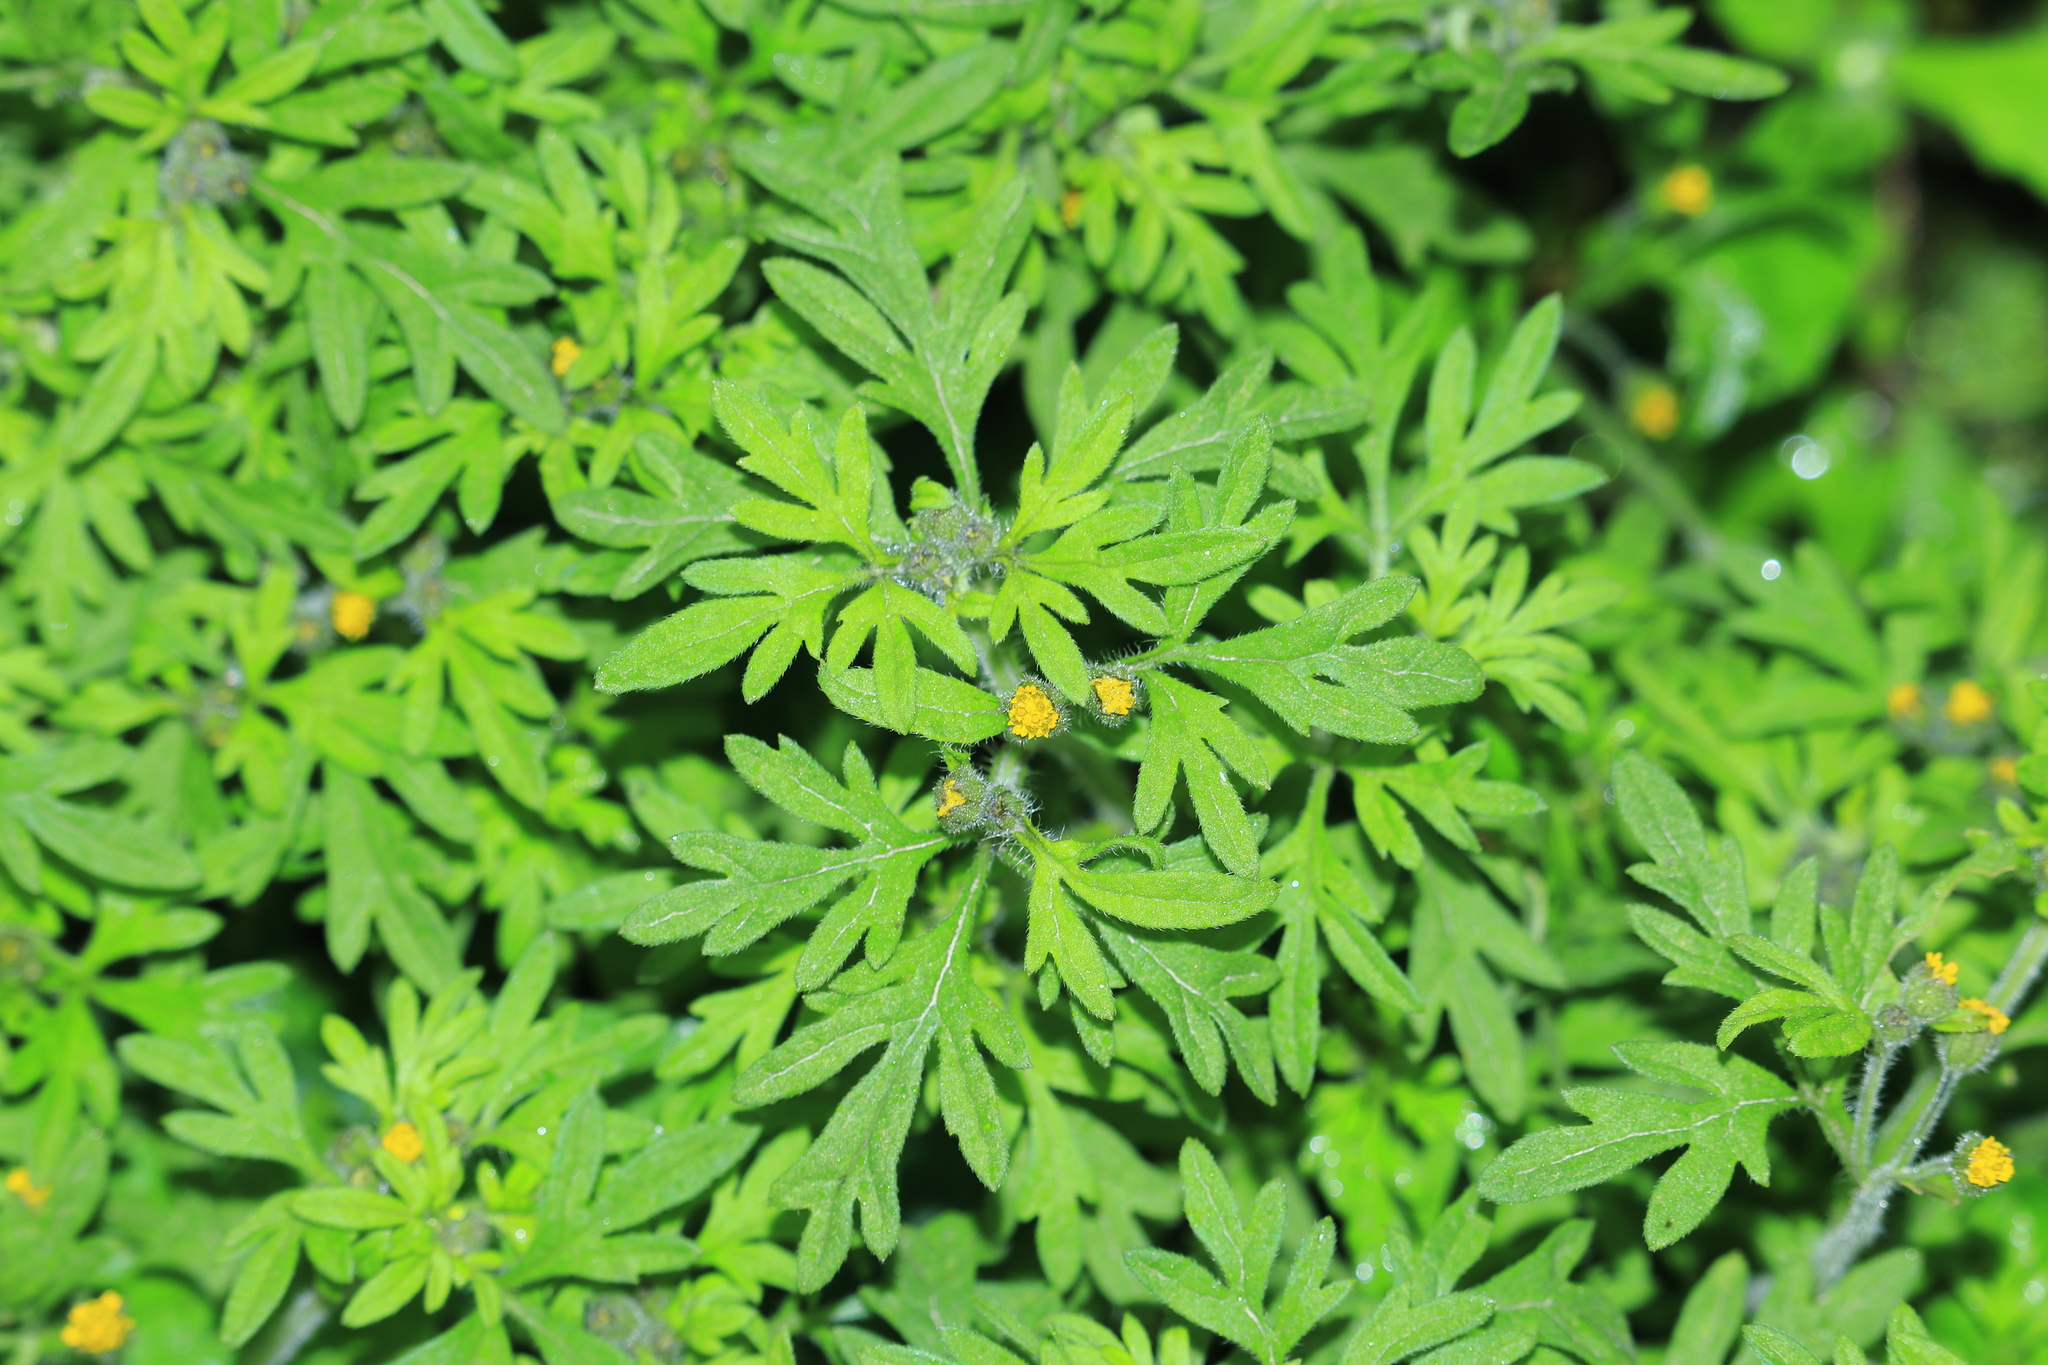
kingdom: Plantae
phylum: Tracheophyta
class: Magnoliopsida
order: Asterales
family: Asteraceae
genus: Villanova
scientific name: Villanova oppositifolia
